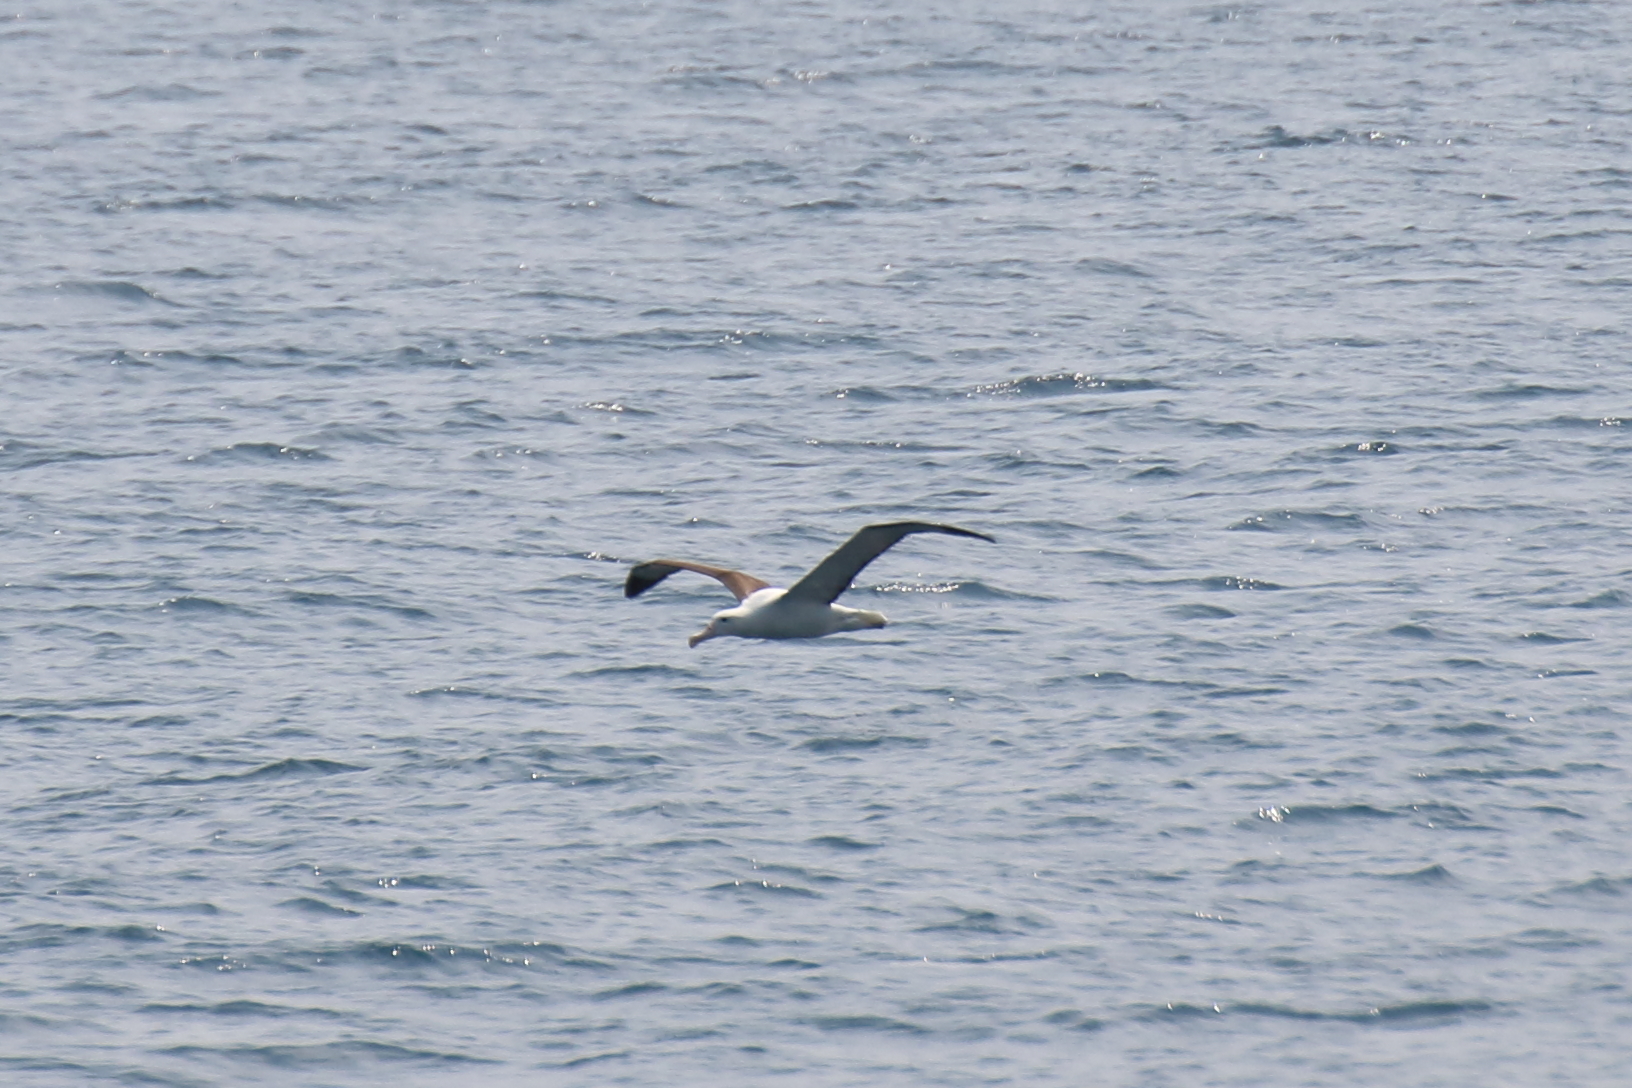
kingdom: Animalia
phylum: Chordata
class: Aves
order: Procellariiformes
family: Diomedeidae
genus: Diomedea
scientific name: Diomedea sanfordi
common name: Northern royal albatross
